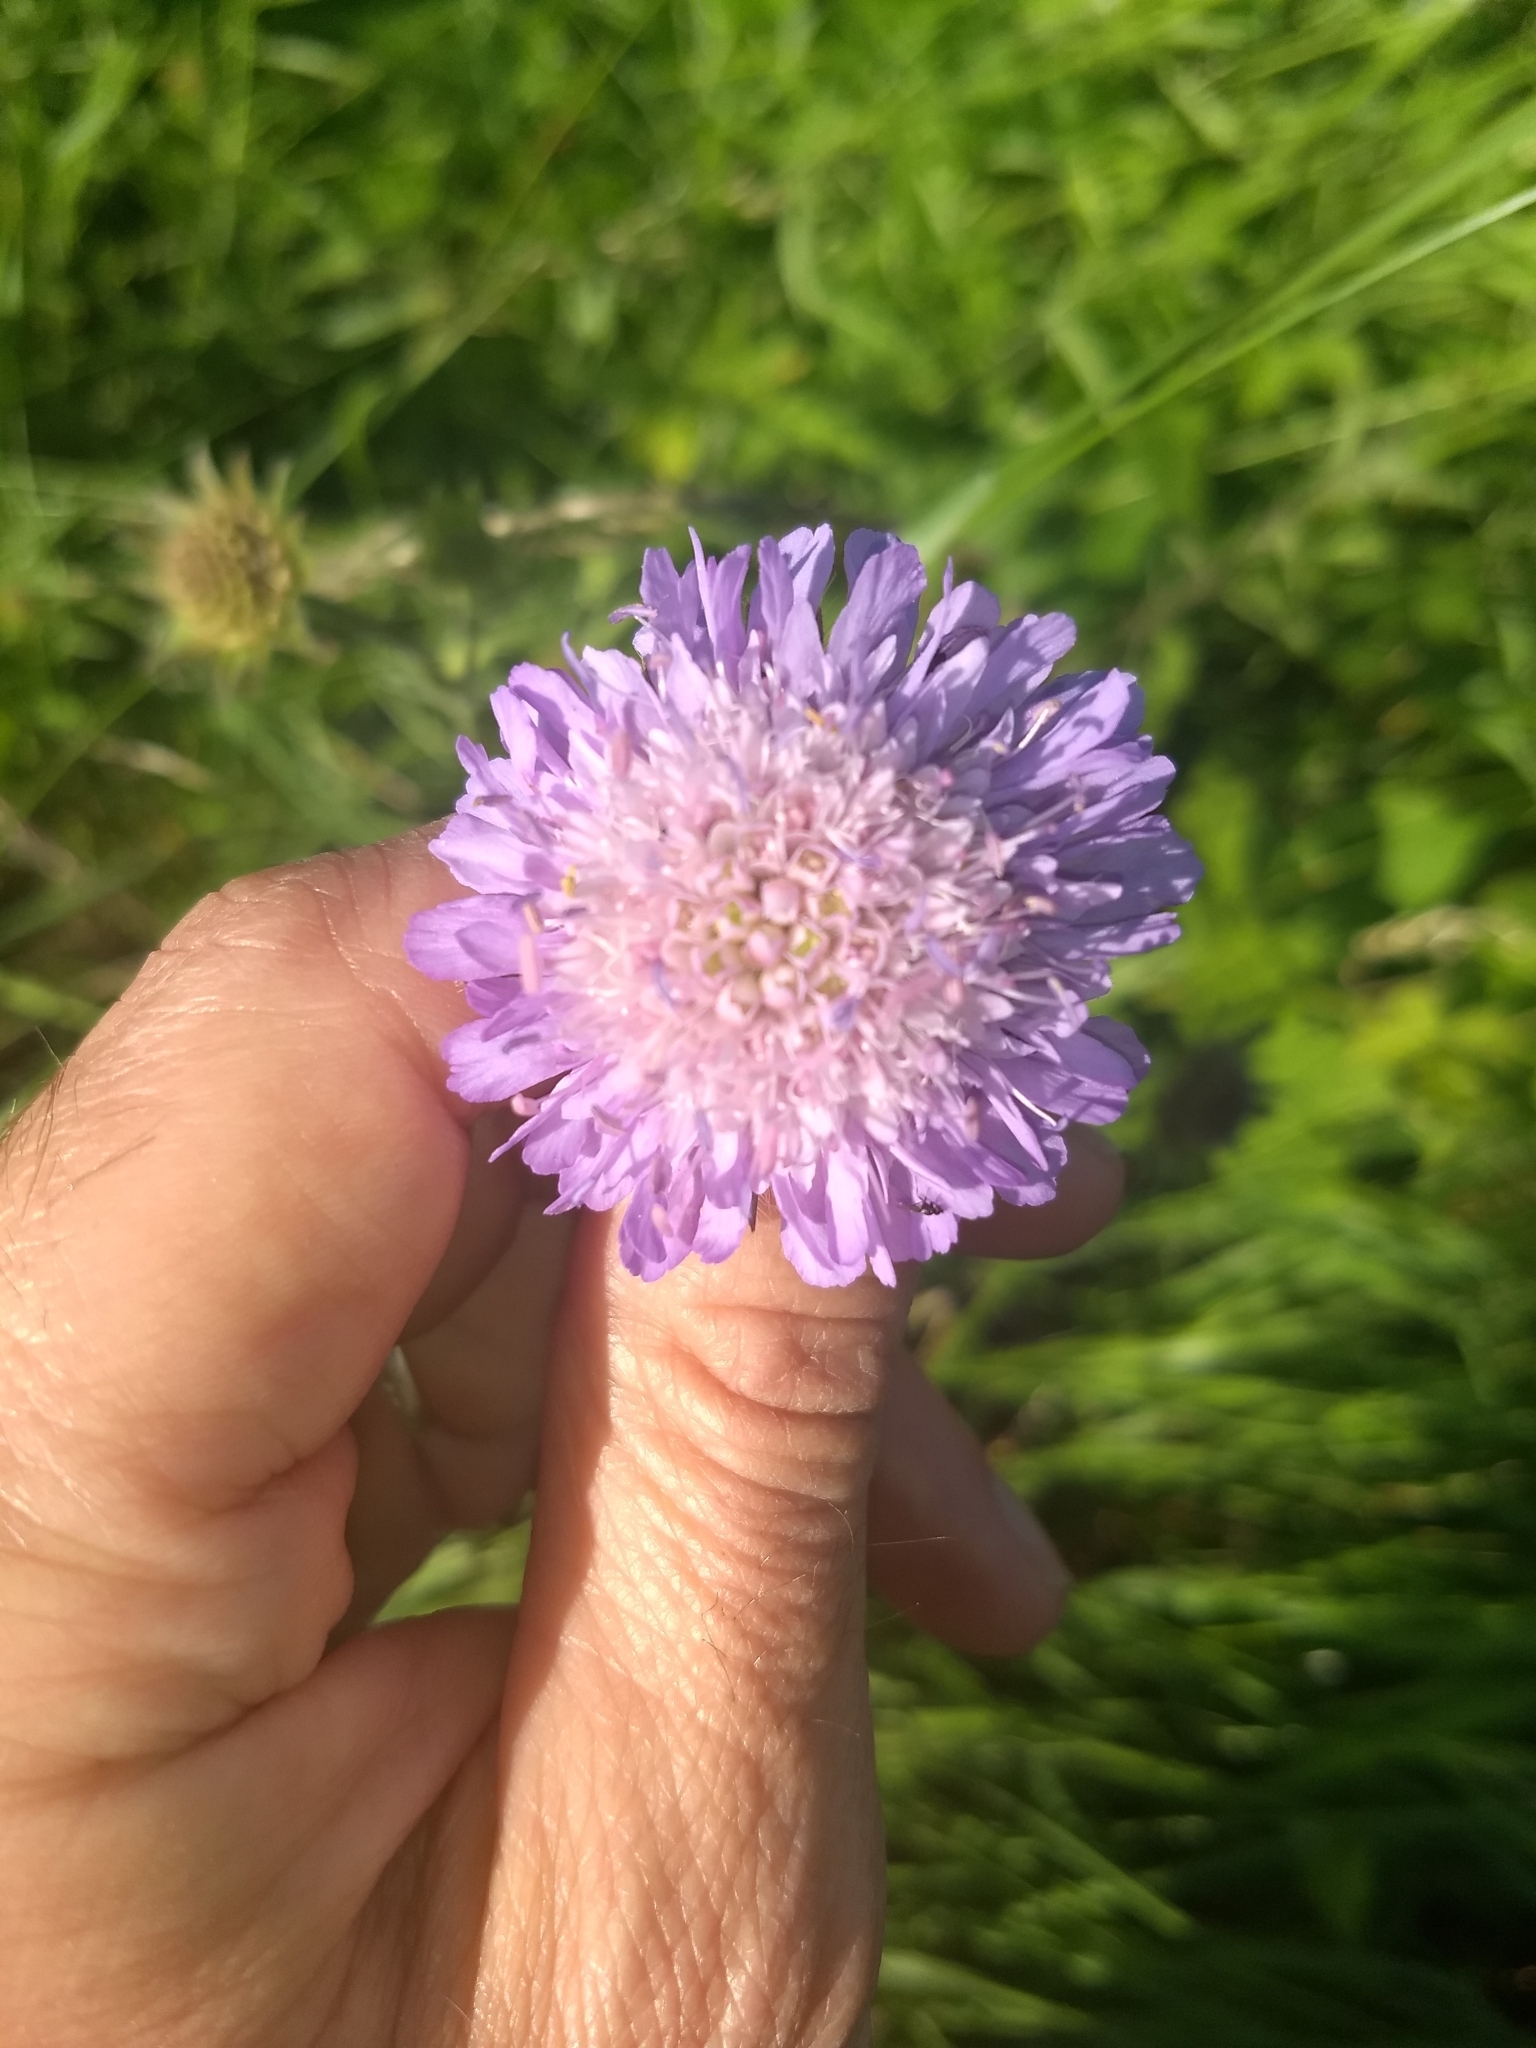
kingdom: Plantae
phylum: Tracheophyta
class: Magnoliopsida
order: Dipsacales
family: Caprifoliaceae
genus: Knautia
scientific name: Knautia arvensis
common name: Field scabiosa
